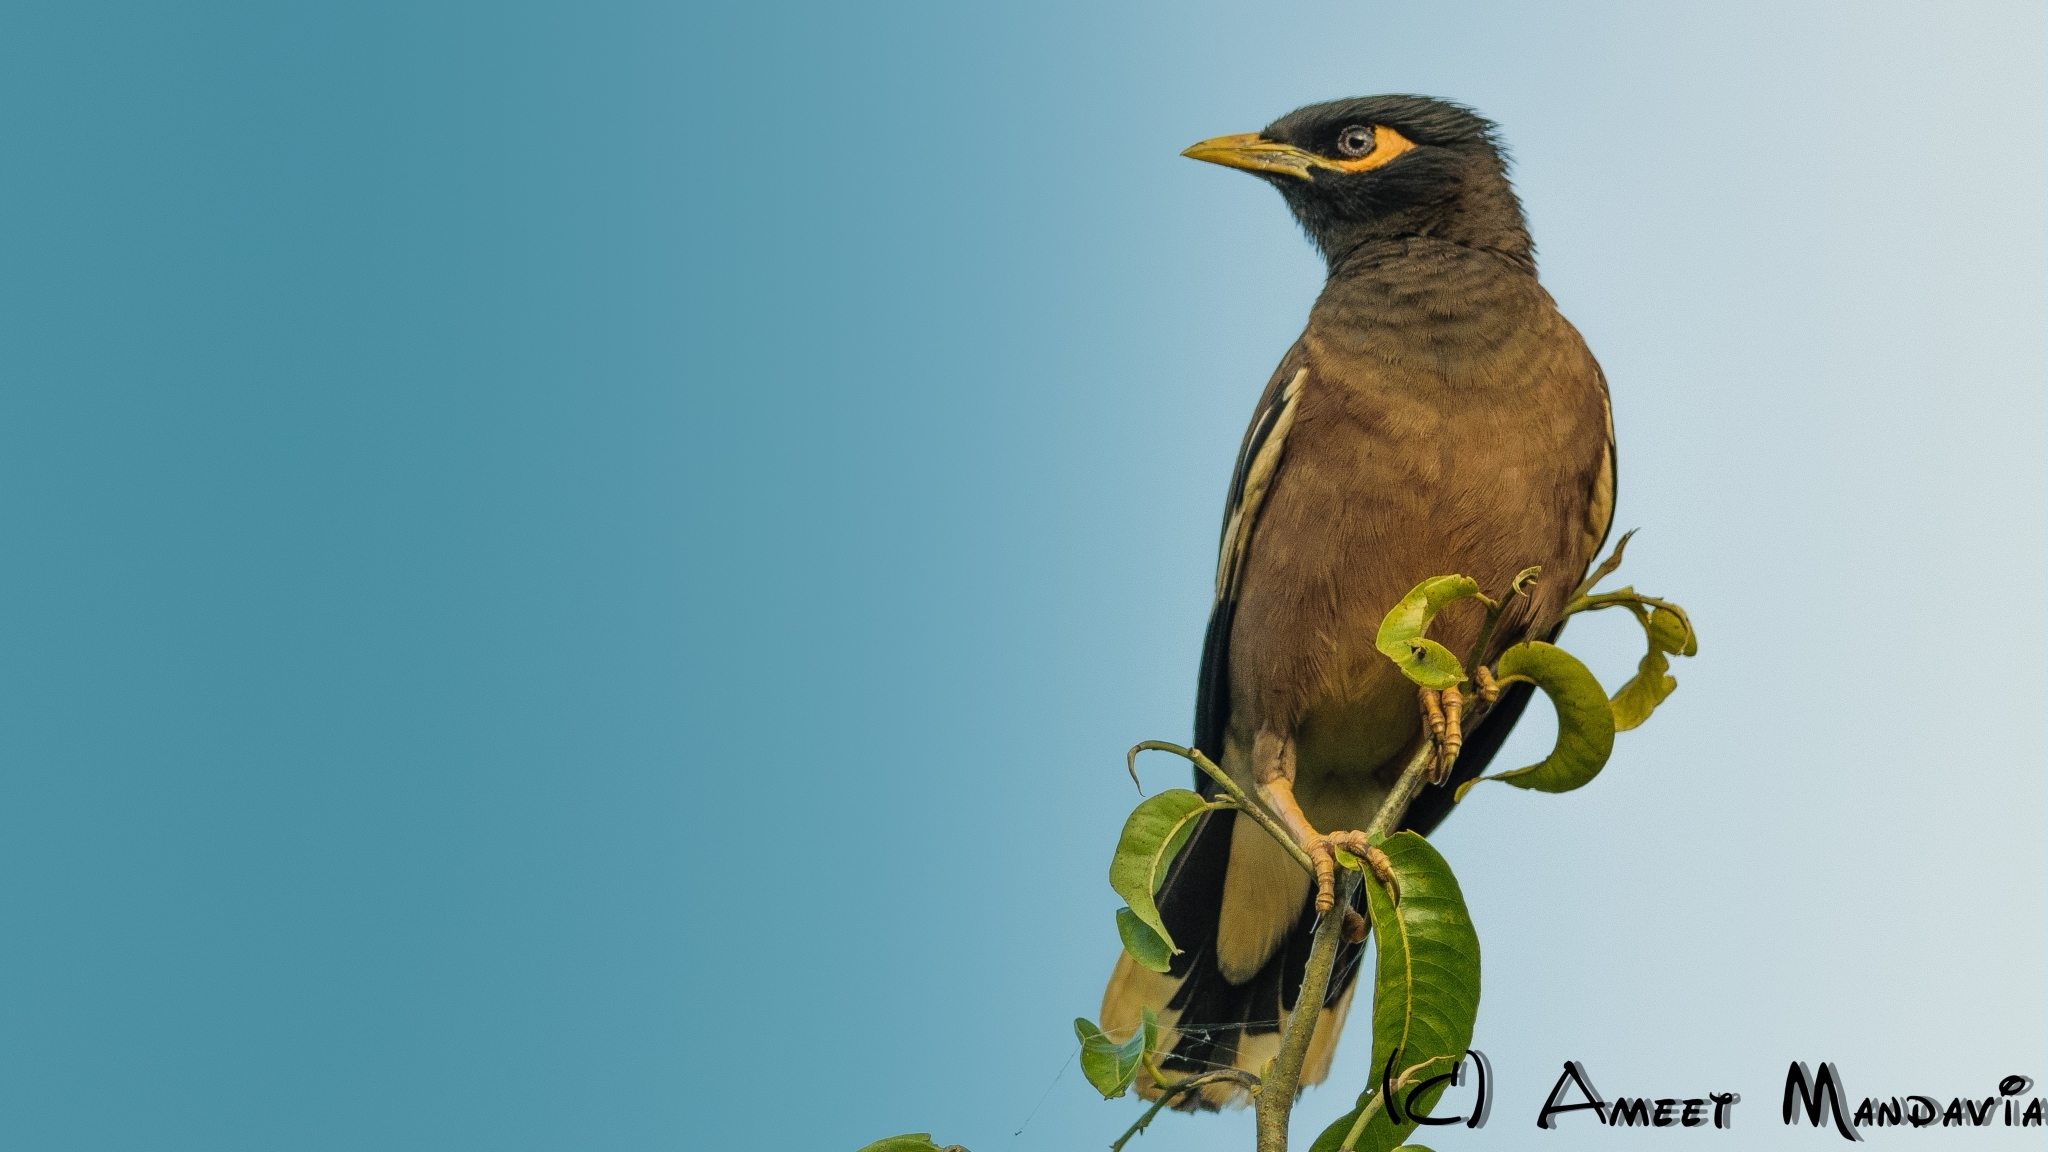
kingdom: Animalia
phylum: Chordata
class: Aves
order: Passeriformes
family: Sturnidae
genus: Acridotheres
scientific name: Acridotheres tristis
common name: Common myna
